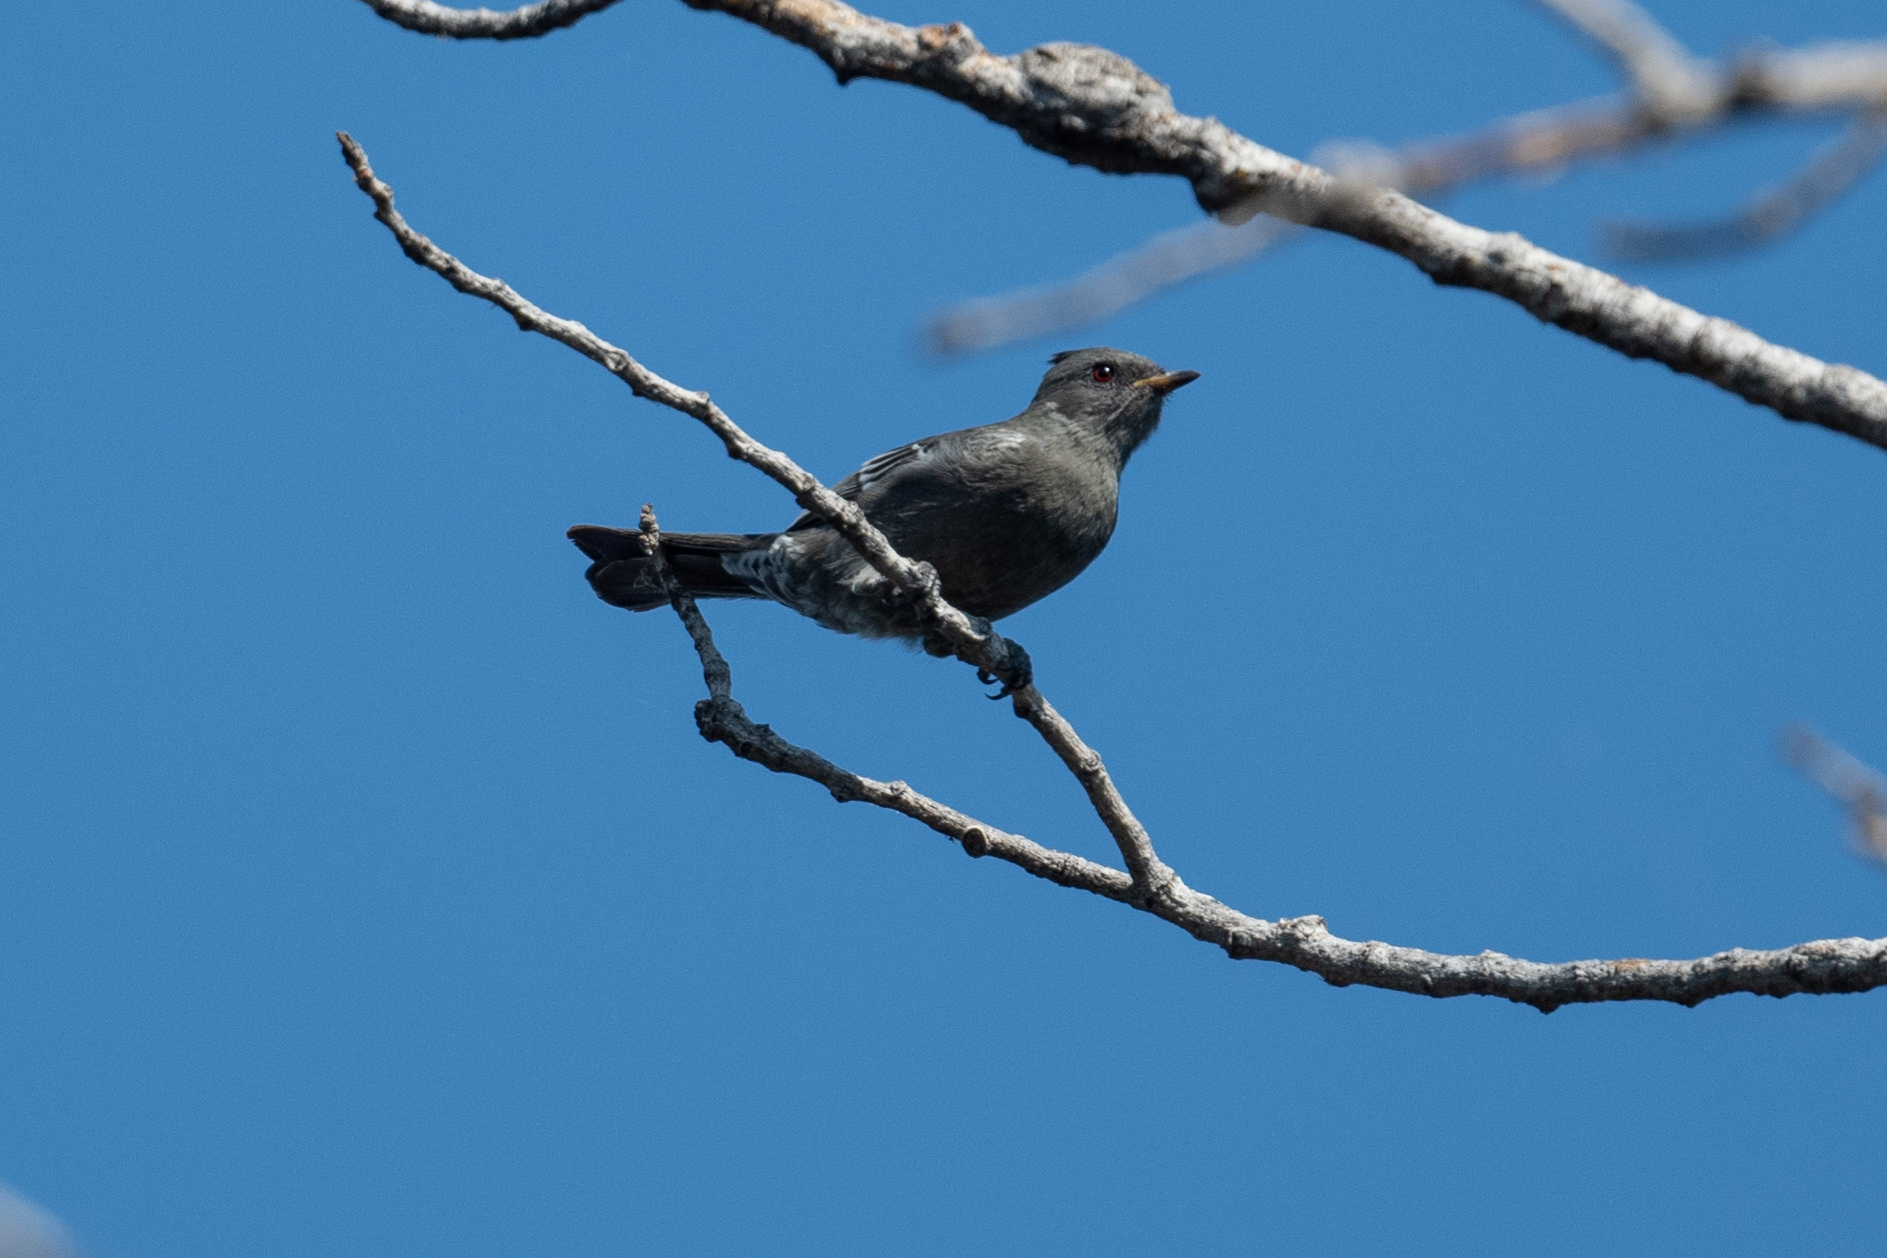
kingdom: Animalia
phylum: Chordata
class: Aves
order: Passeriformes
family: Ptilogonatidae
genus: Phainopepla
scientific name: Phainopepla nitens
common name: Phainopepla
